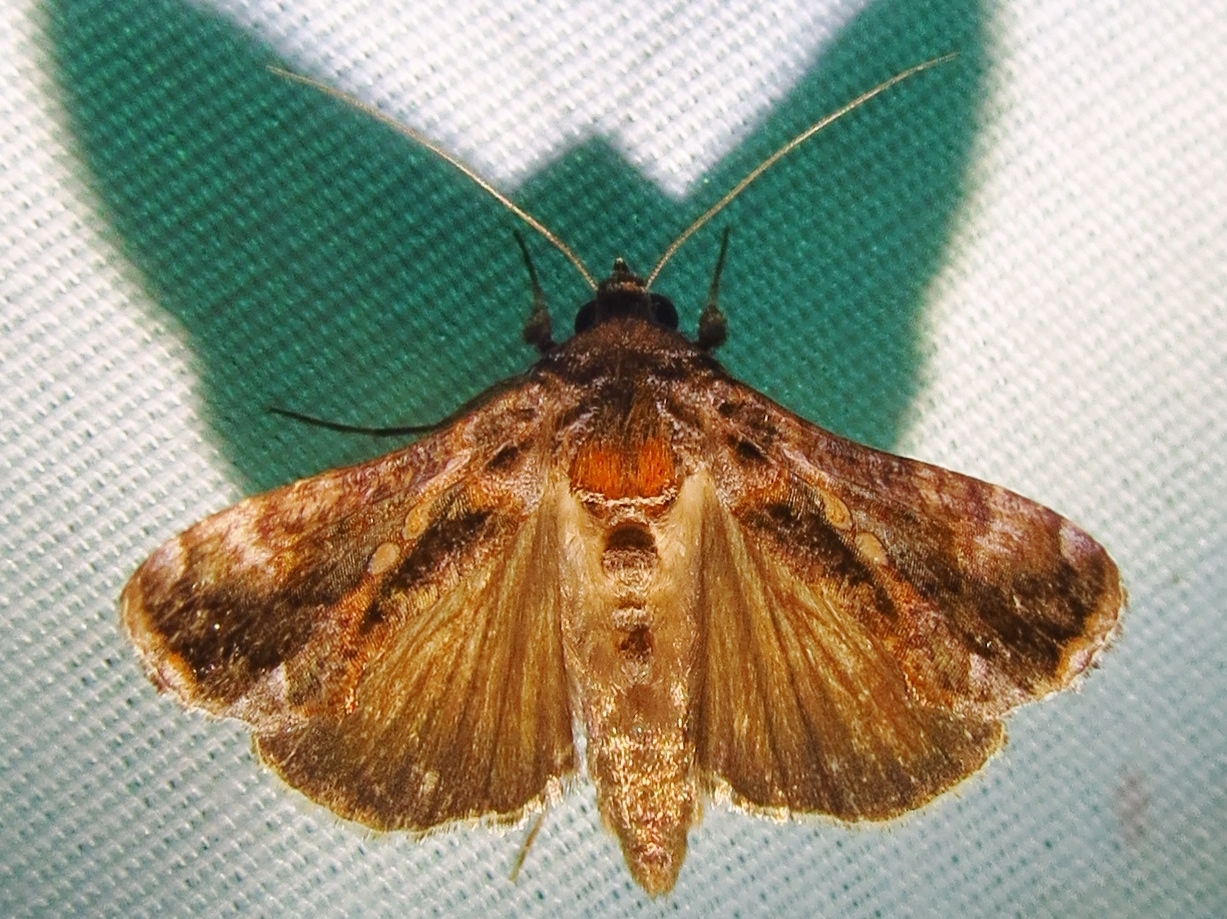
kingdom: Animalia
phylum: Arthropoda
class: Insecta
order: Lepidoptera
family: Noctuidae
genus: Chrysodeixis
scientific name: Chrysodeixis includens
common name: Cutworm moth
